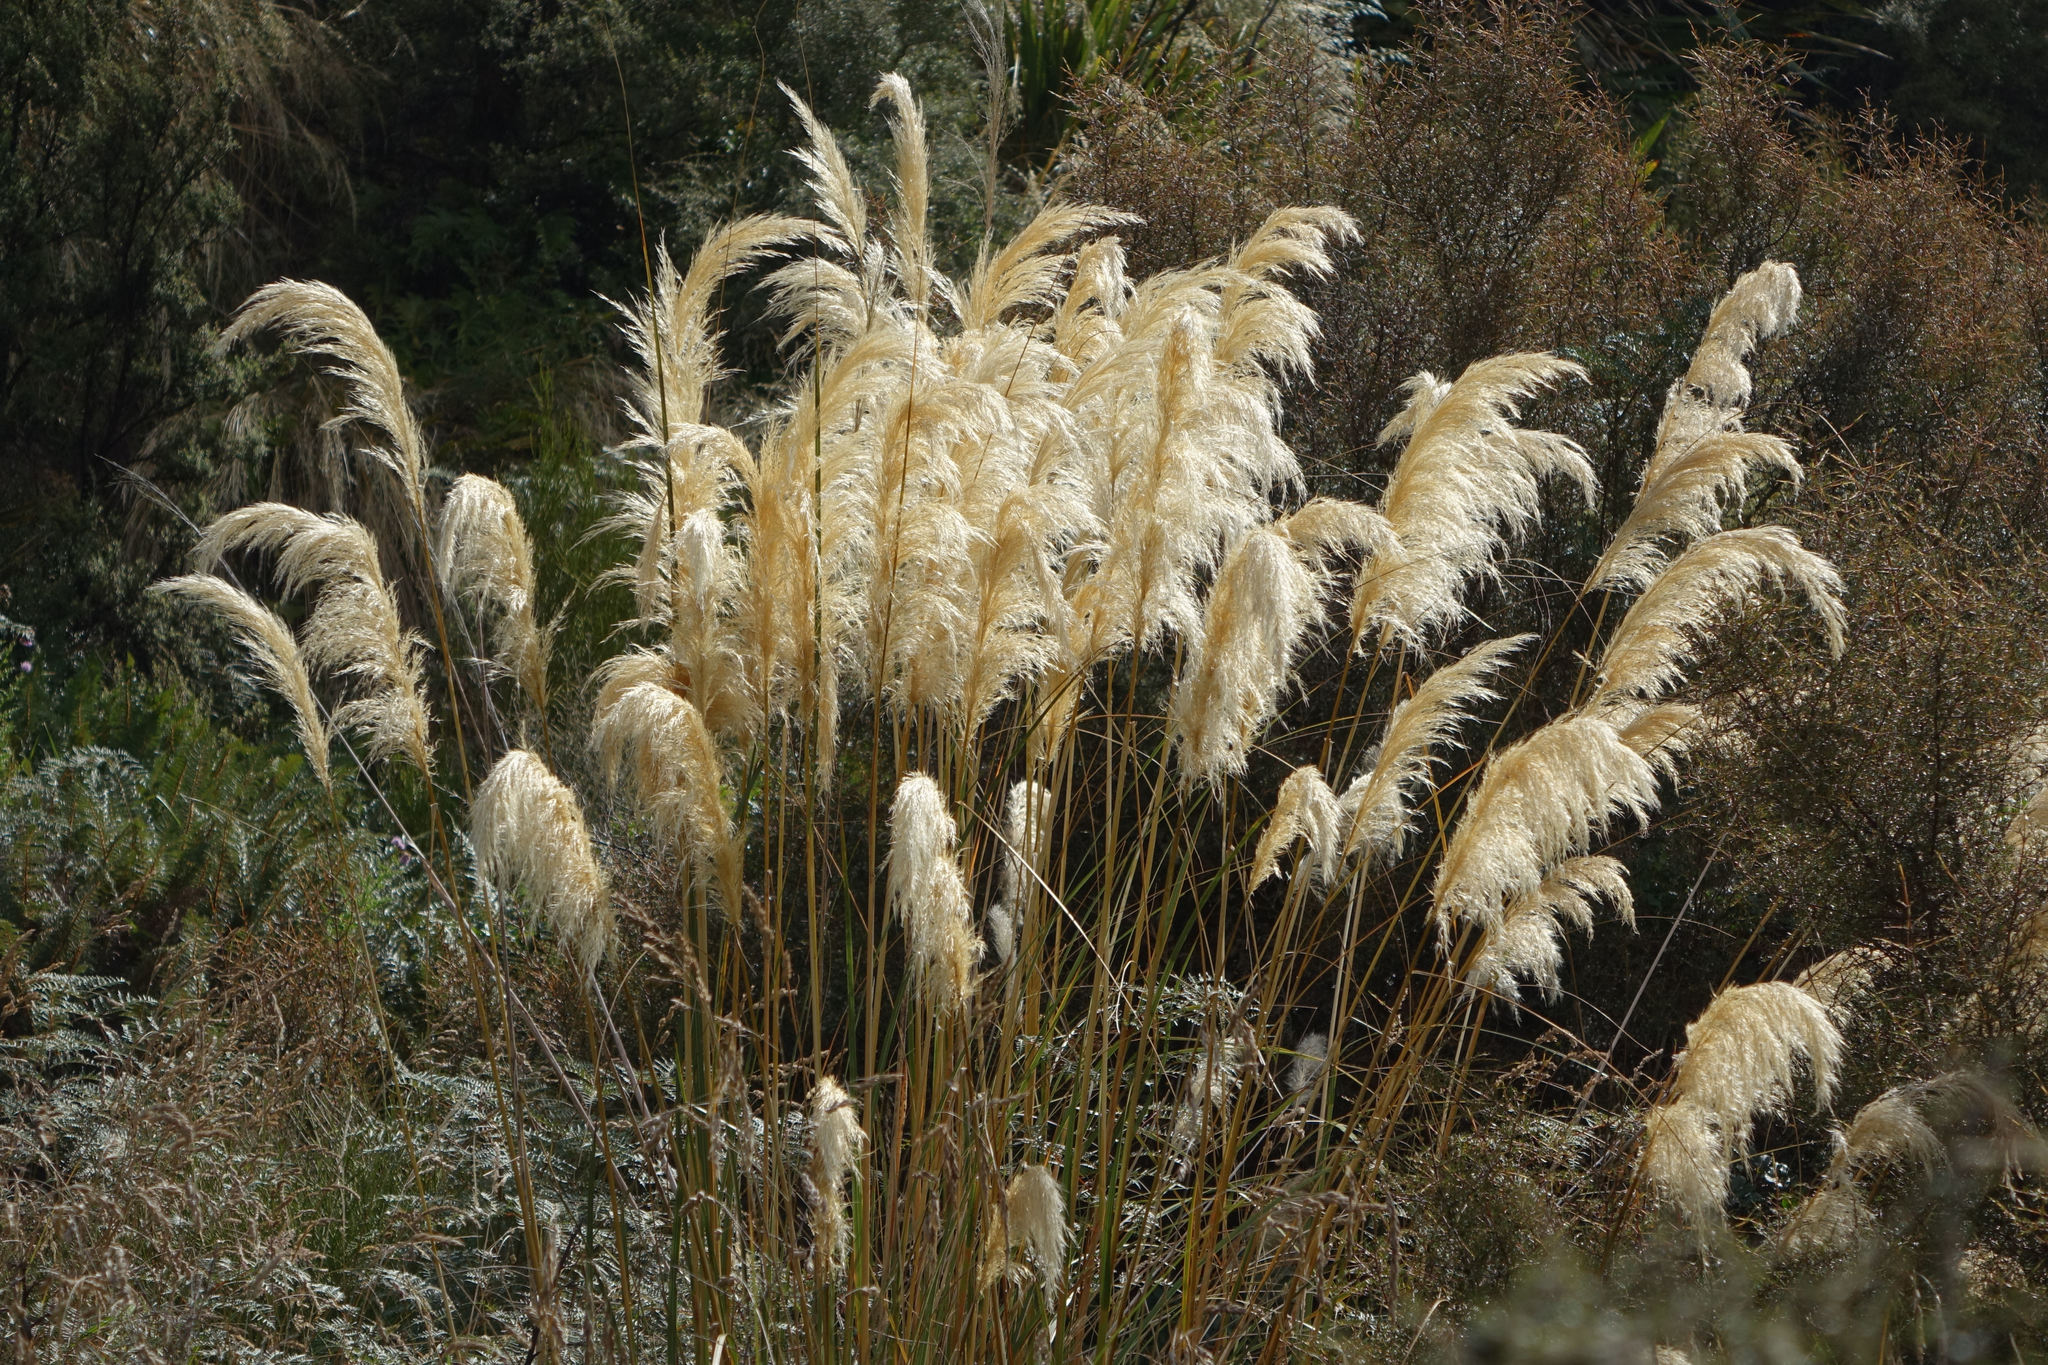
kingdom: Plantae
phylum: Tracheophyta
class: Liliopsida
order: Poales
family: Poaceae
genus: Austroderia
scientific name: Austroderia richardii
